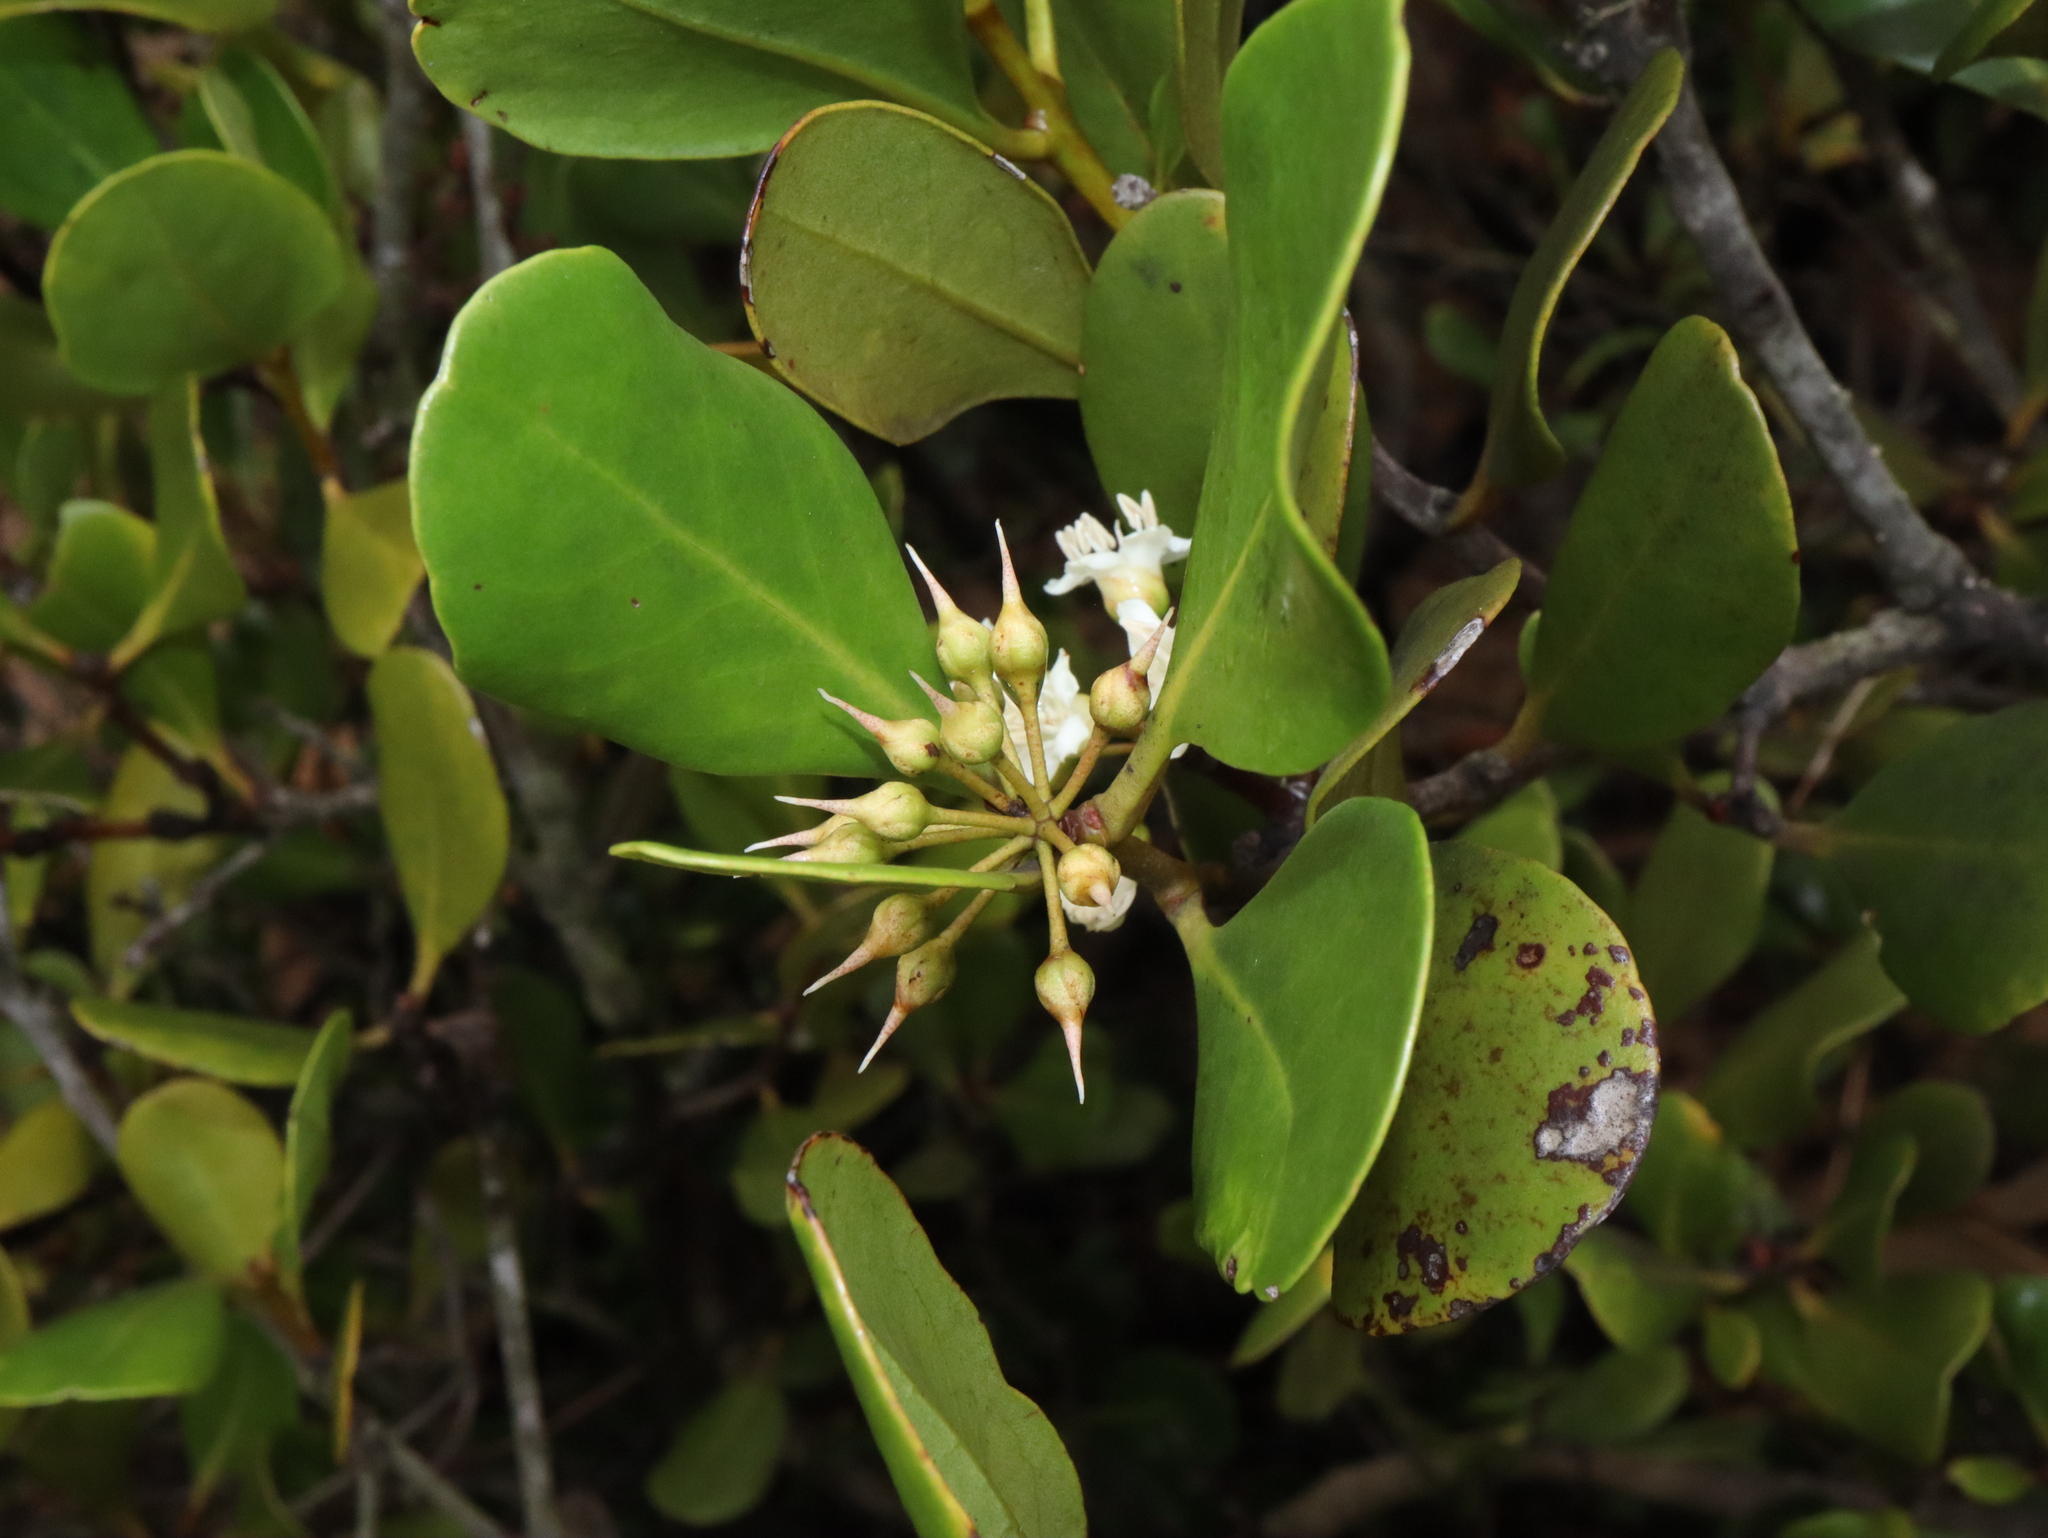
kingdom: Plantae
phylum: Tracheophyta
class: Magnoliopsida
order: Ericales
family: Primulaceae
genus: Aegiceras
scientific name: Aegiceras corniculatum
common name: River mangrove
